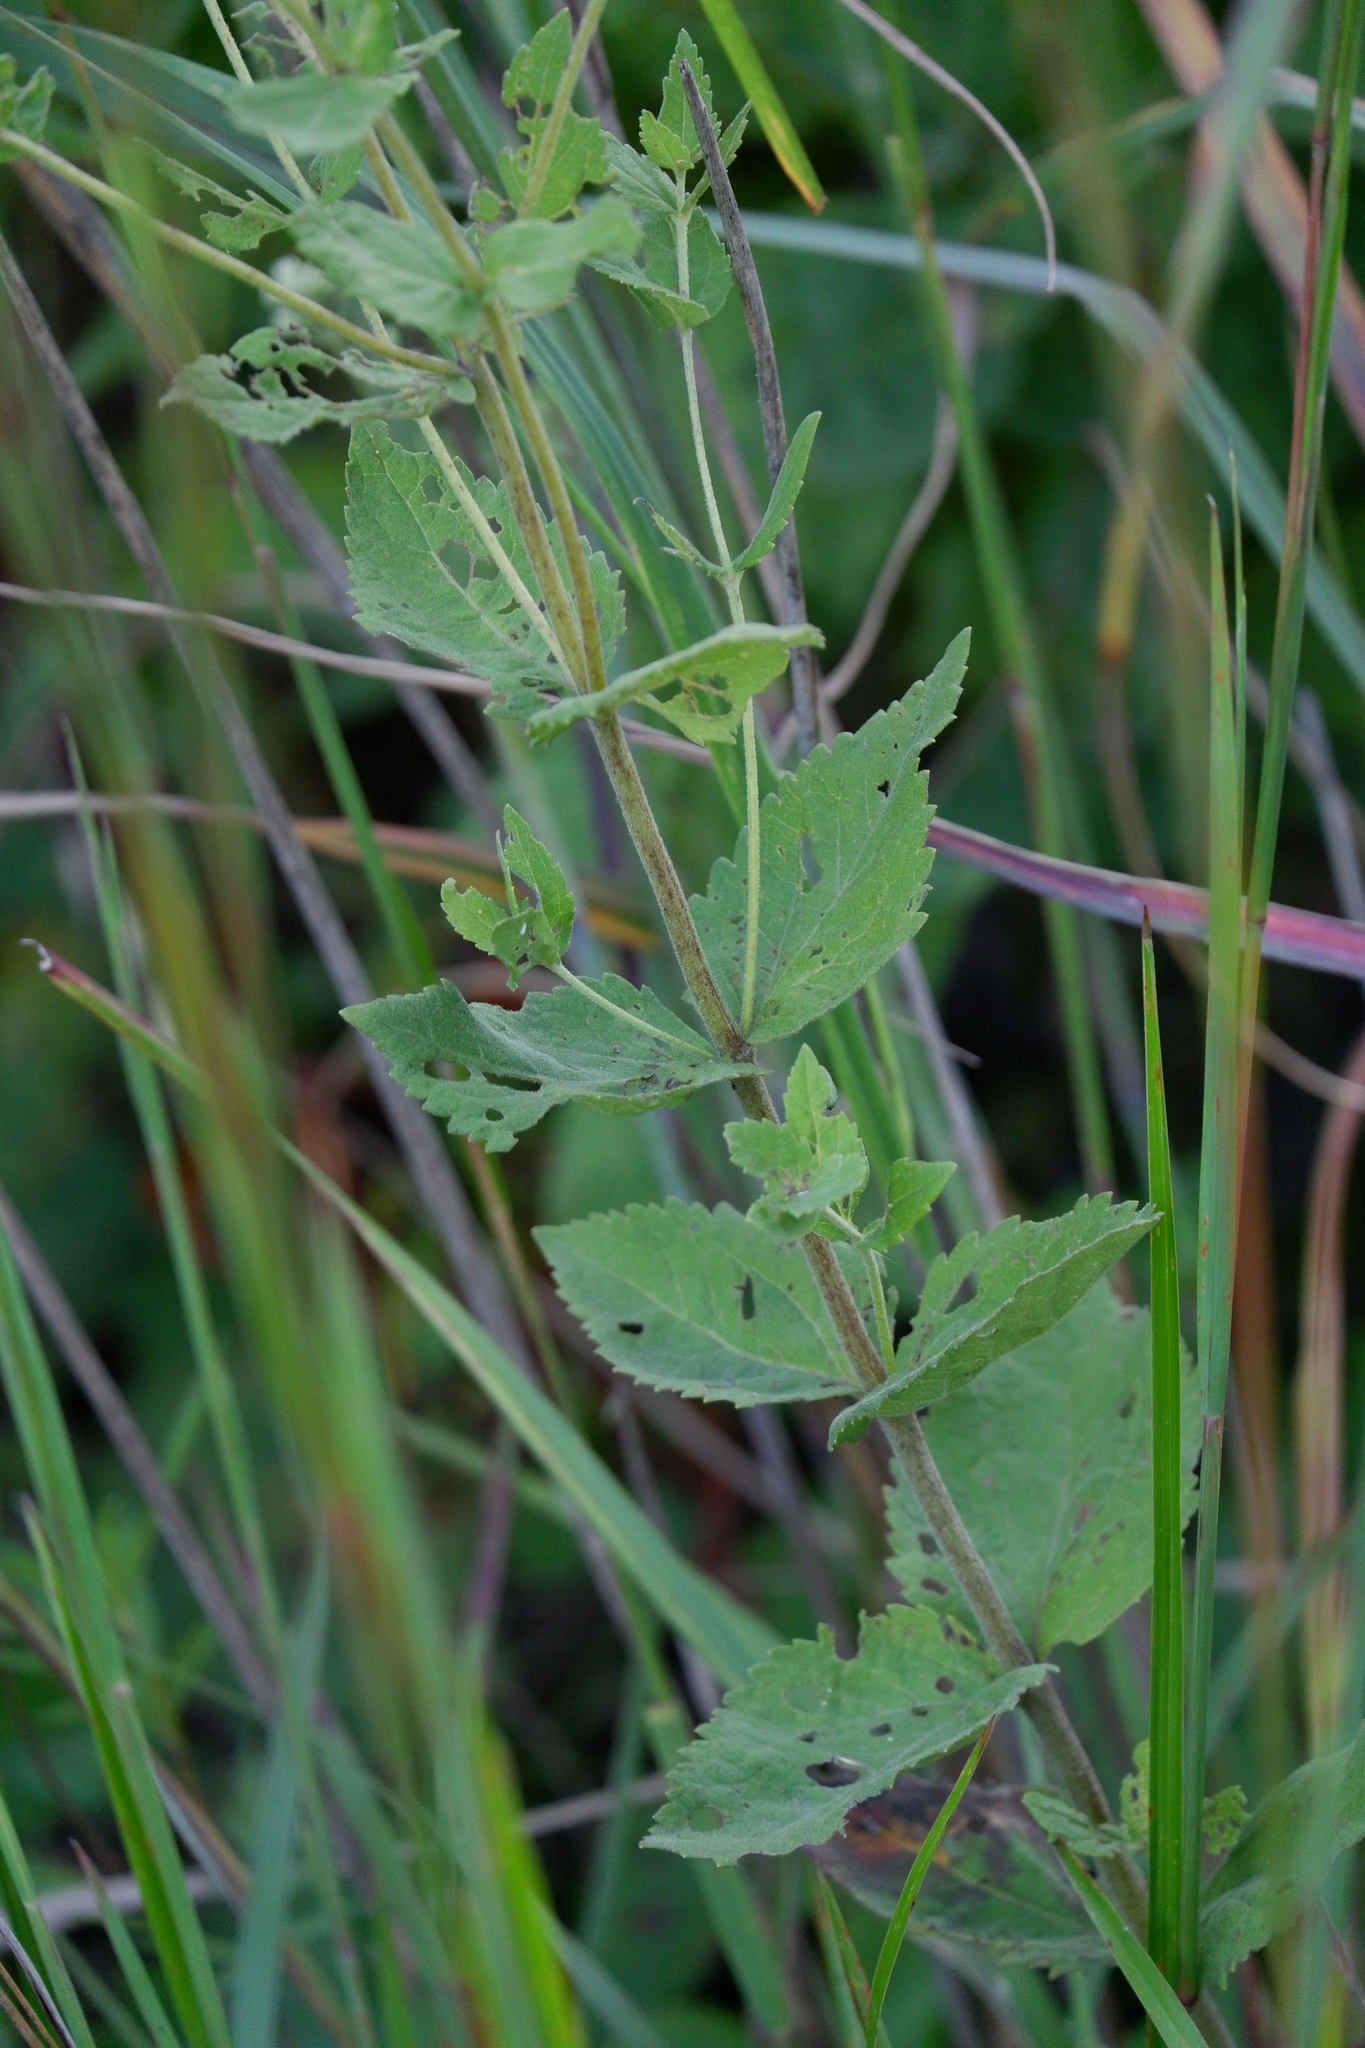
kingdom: Plantae
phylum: Tracheophyta
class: Magnoliopsida
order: Asterales
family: Asteraceae
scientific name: Asteraceae
